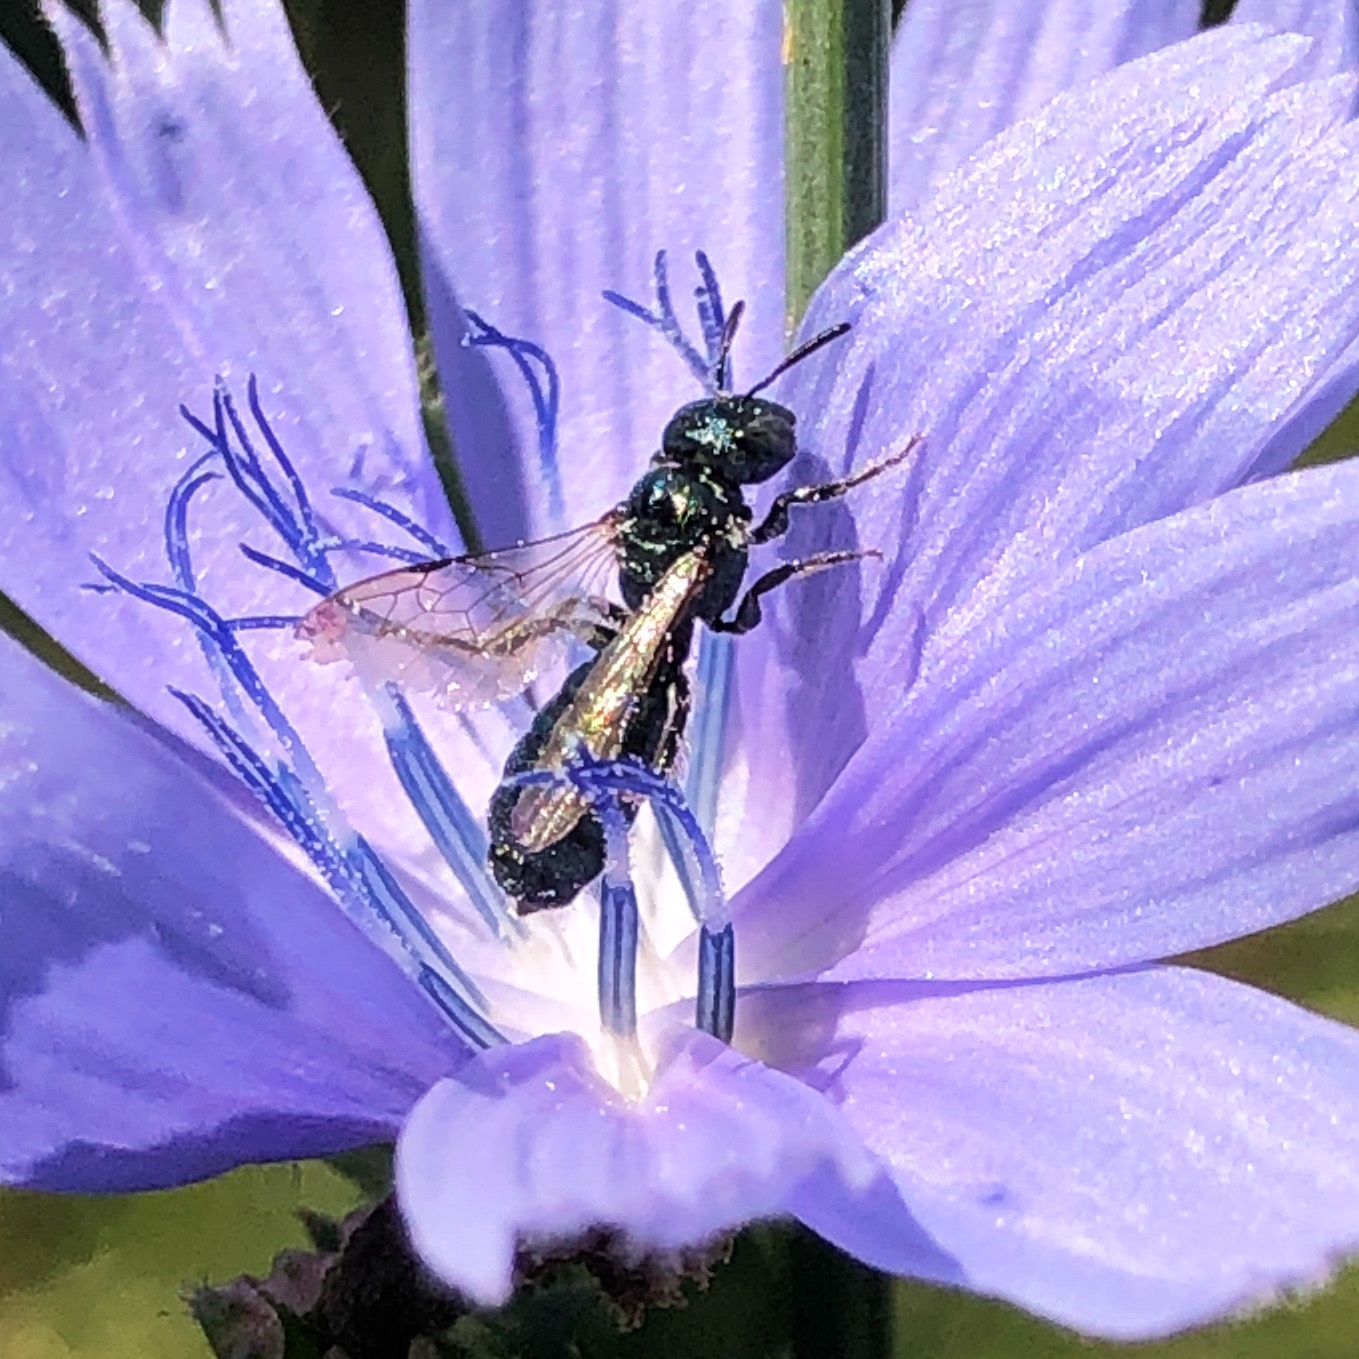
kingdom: Animalia
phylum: Arthropoda
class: Insecta
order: Hymenoptera
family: Apidae
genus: Zadontomerus
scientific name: Zadontomerus
